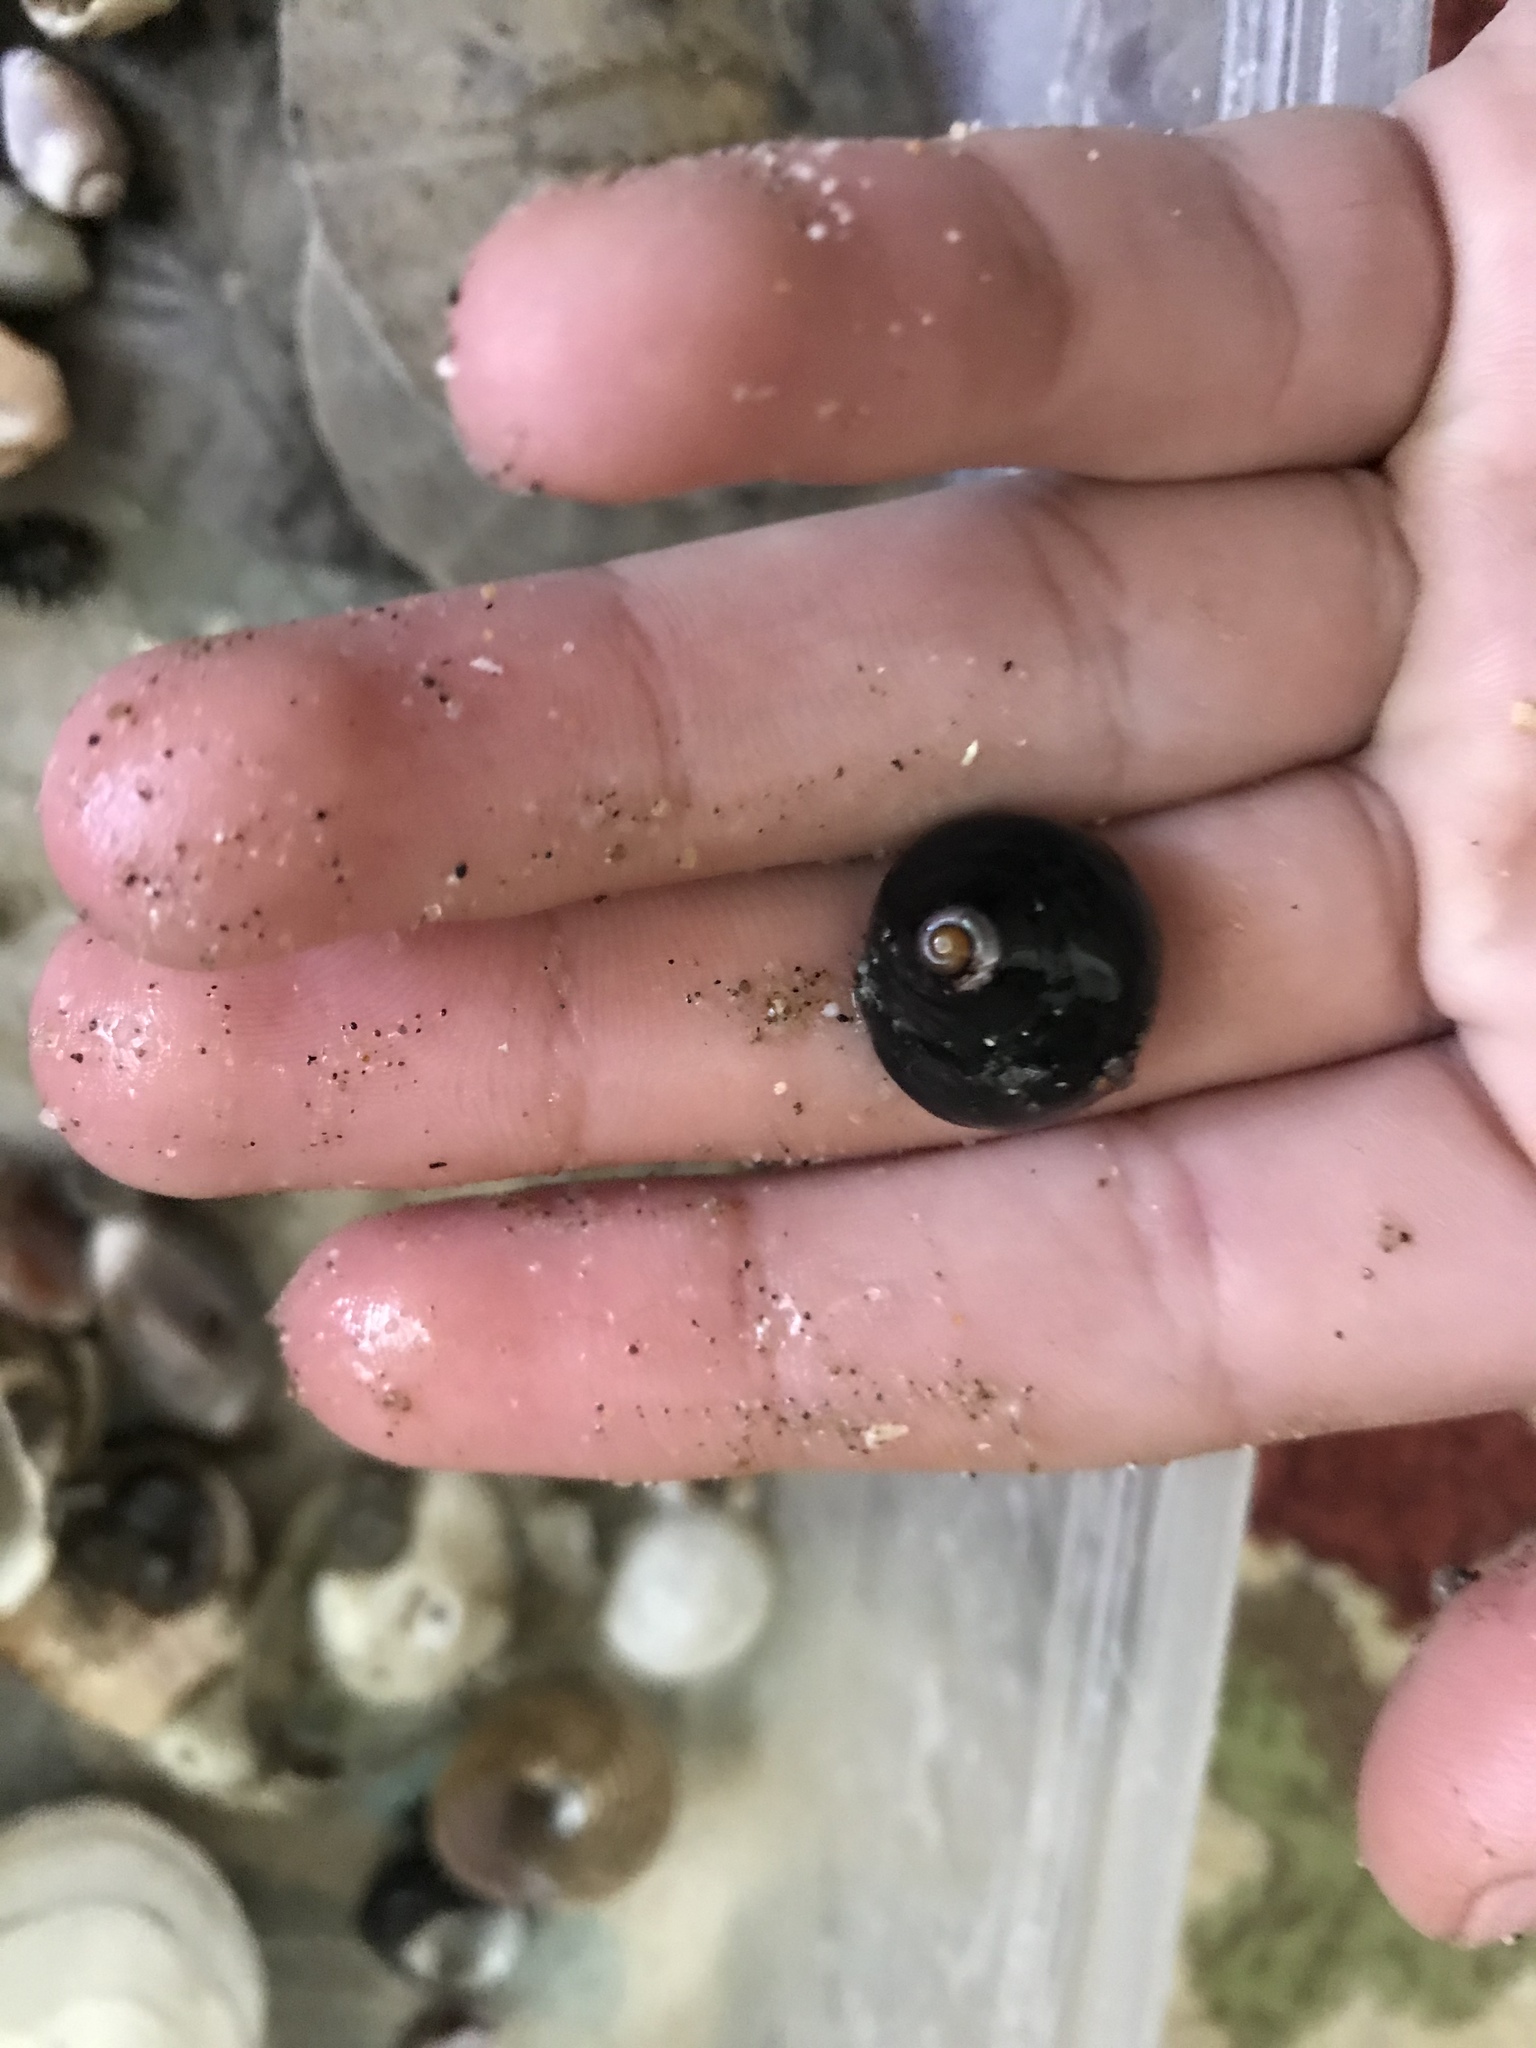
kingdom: Animalia
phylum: Mollusca
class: Gastropoda
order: Trochida
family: Tegulidae
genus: Tegula
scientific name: Tegula funebralis
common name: Black tegula
